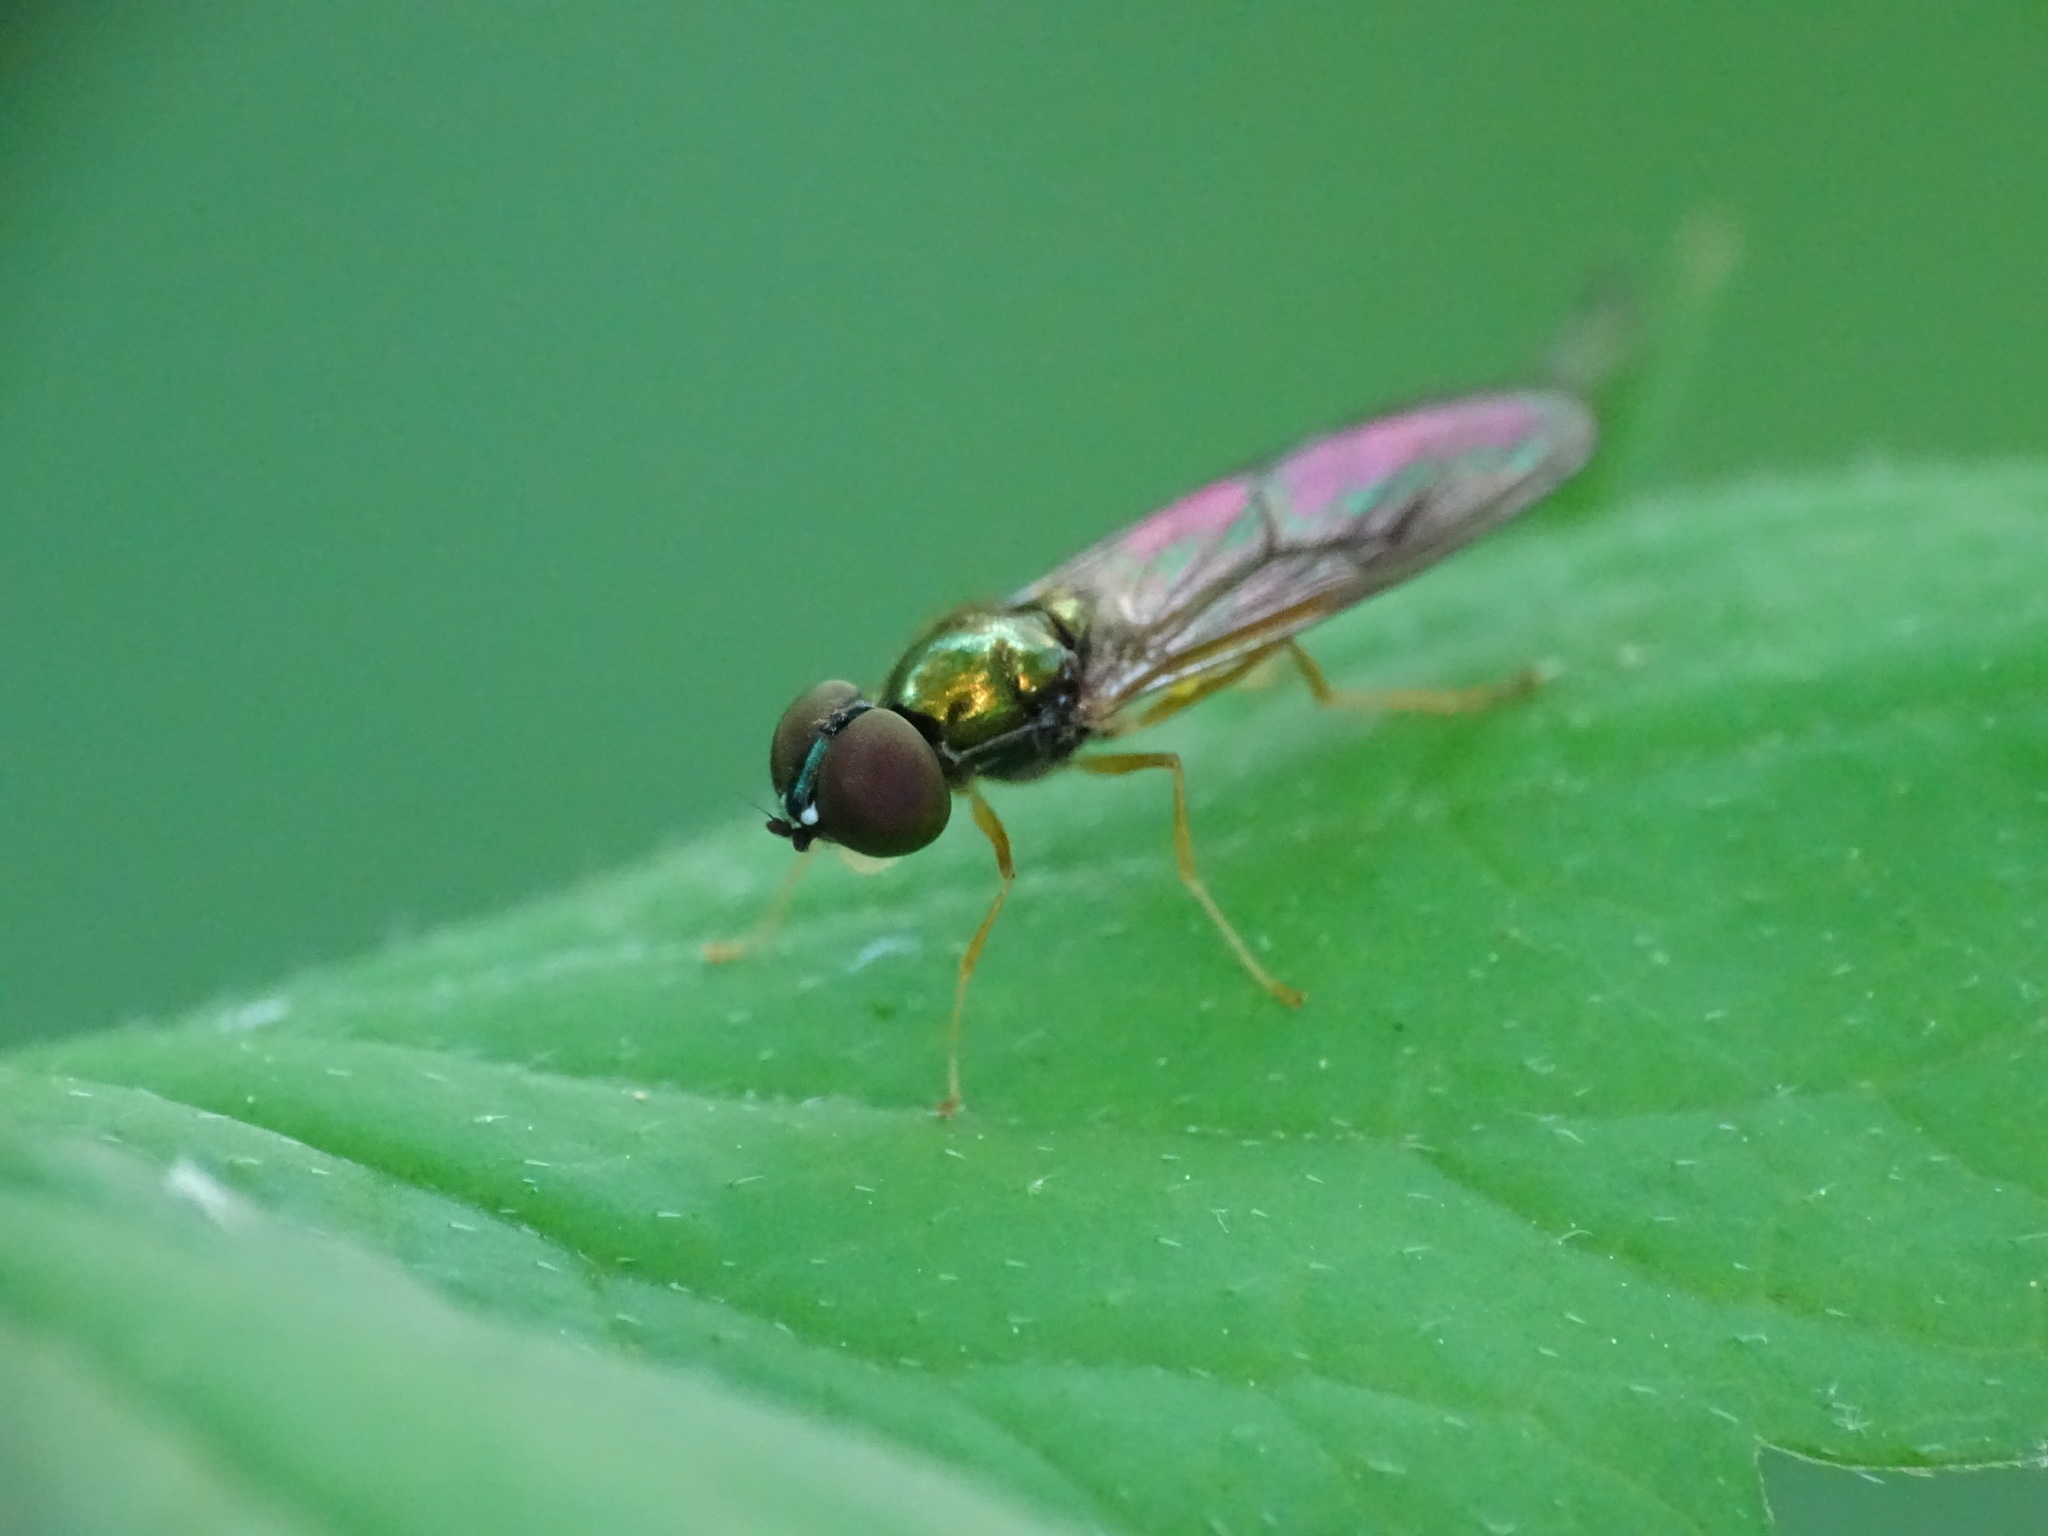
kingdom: Animalia
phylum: Arthropoda
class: Insecta
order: Diptera
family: Stratiomyidae
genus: Sargus
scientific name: Sargus decorus
